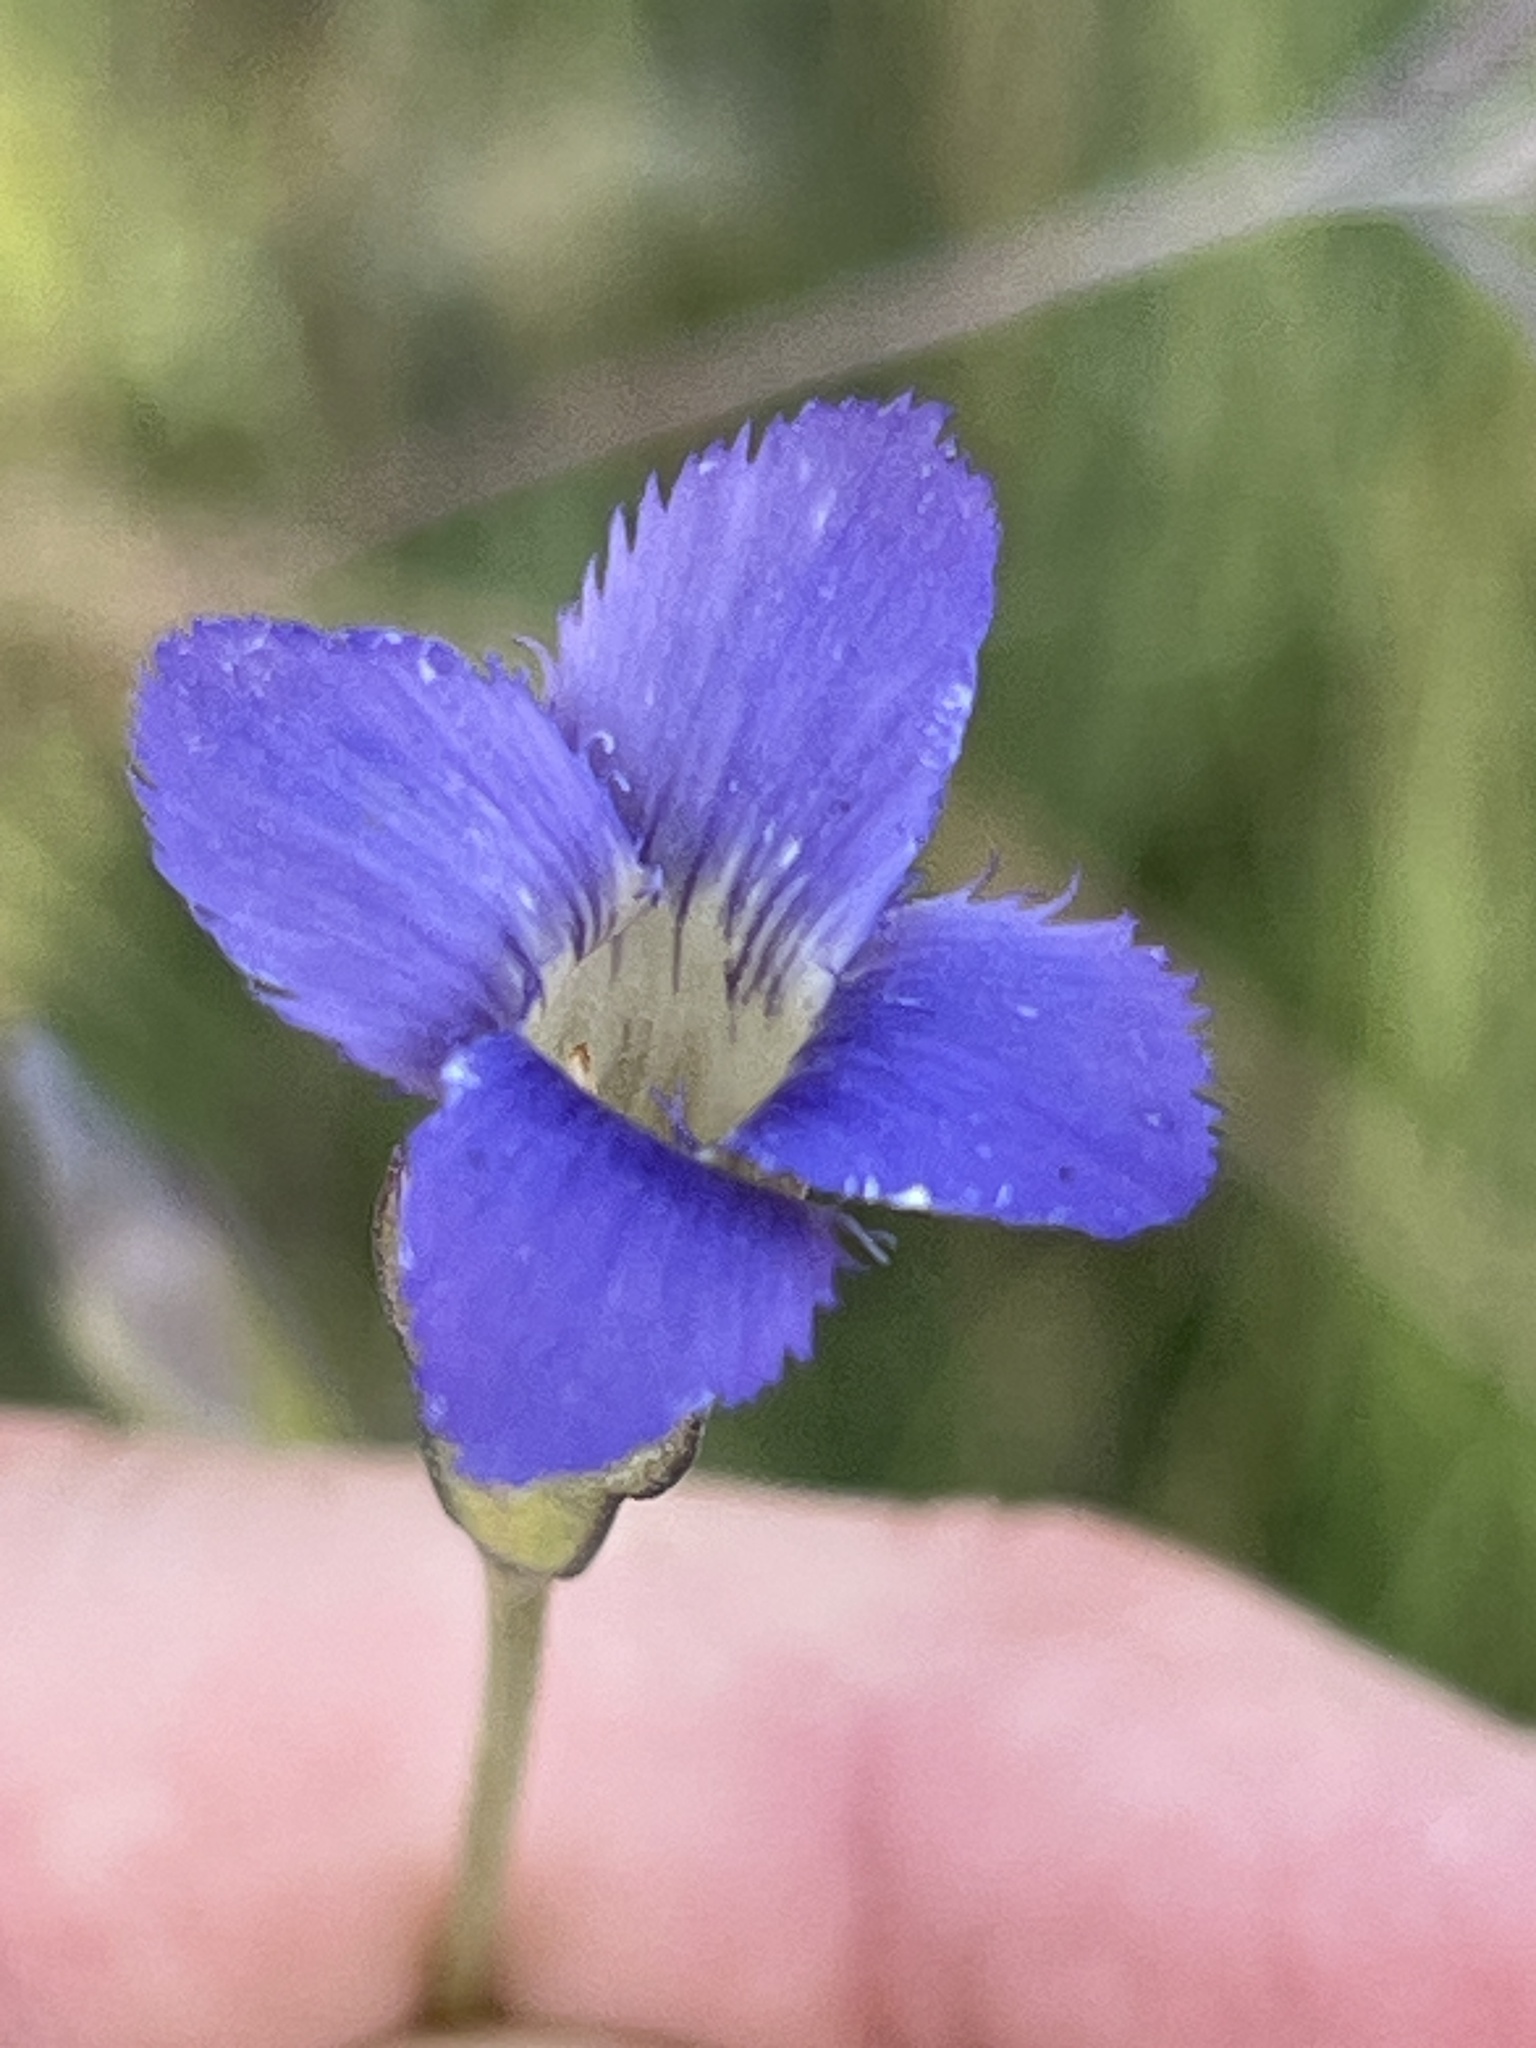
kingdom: Plantae
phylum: Tracheophyta
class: Magnoliopsida
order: Gentianales
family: Gentianaceae
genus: Gentianopsis
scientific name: Gentianopsis virgata
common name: Lesser fringed-gentian
